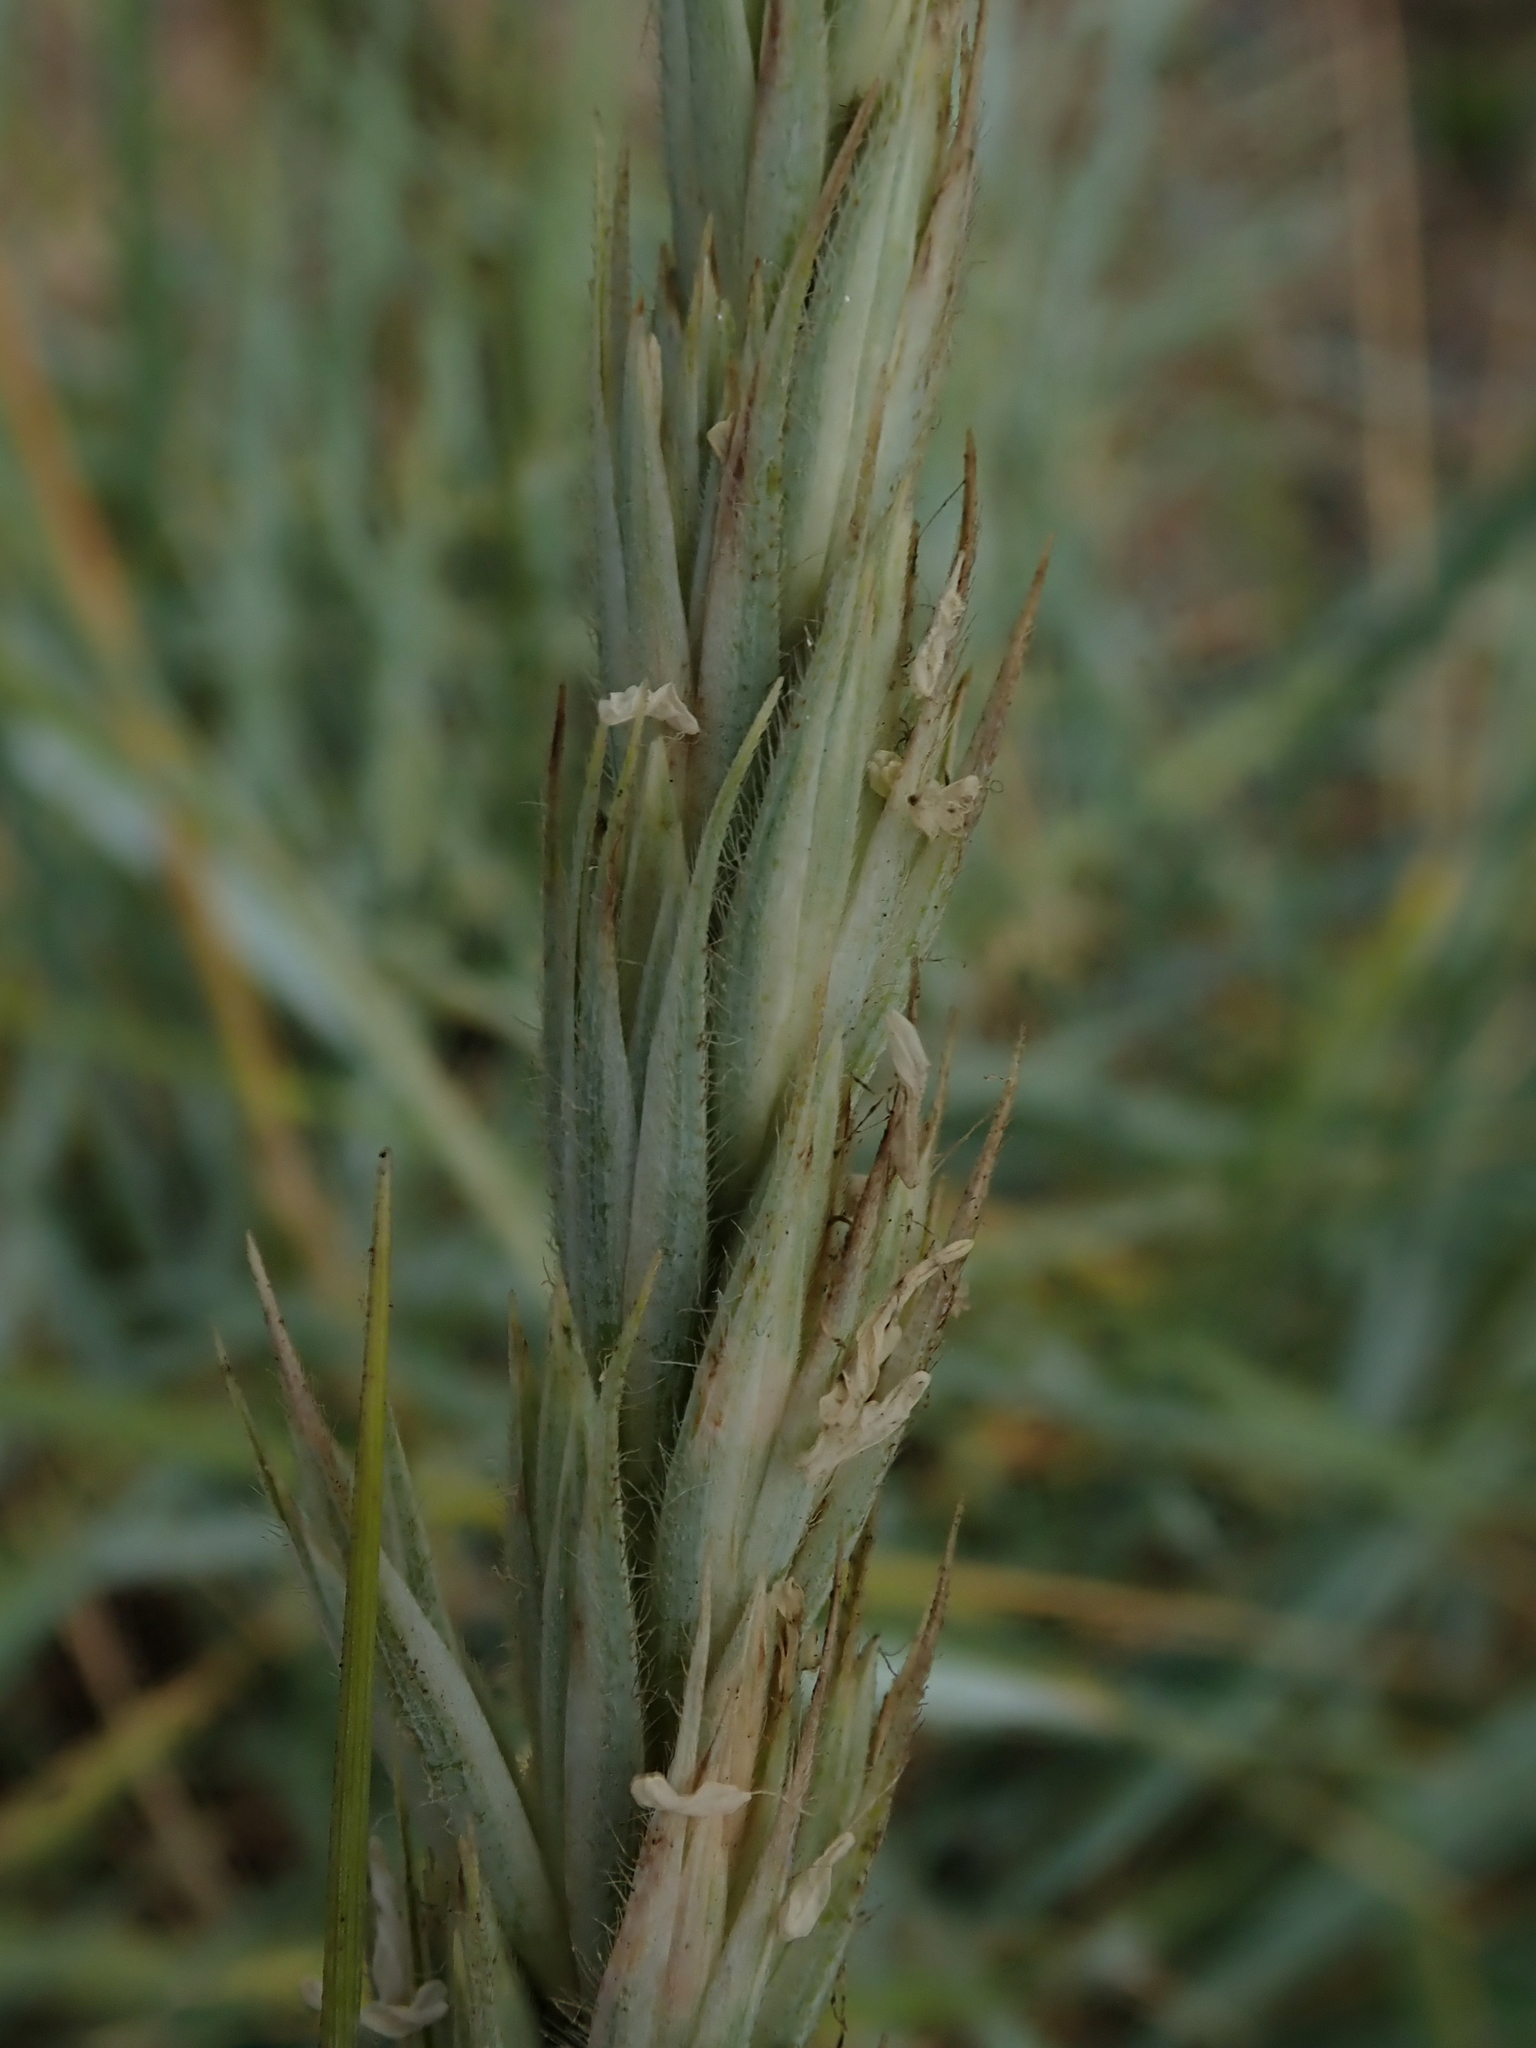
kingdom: Plantae
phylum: Tracheophyta
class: Liliopsida
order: Poales
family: Poaceae
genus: Leymus
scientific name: Leymus arenarius
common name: Lyme-grass
